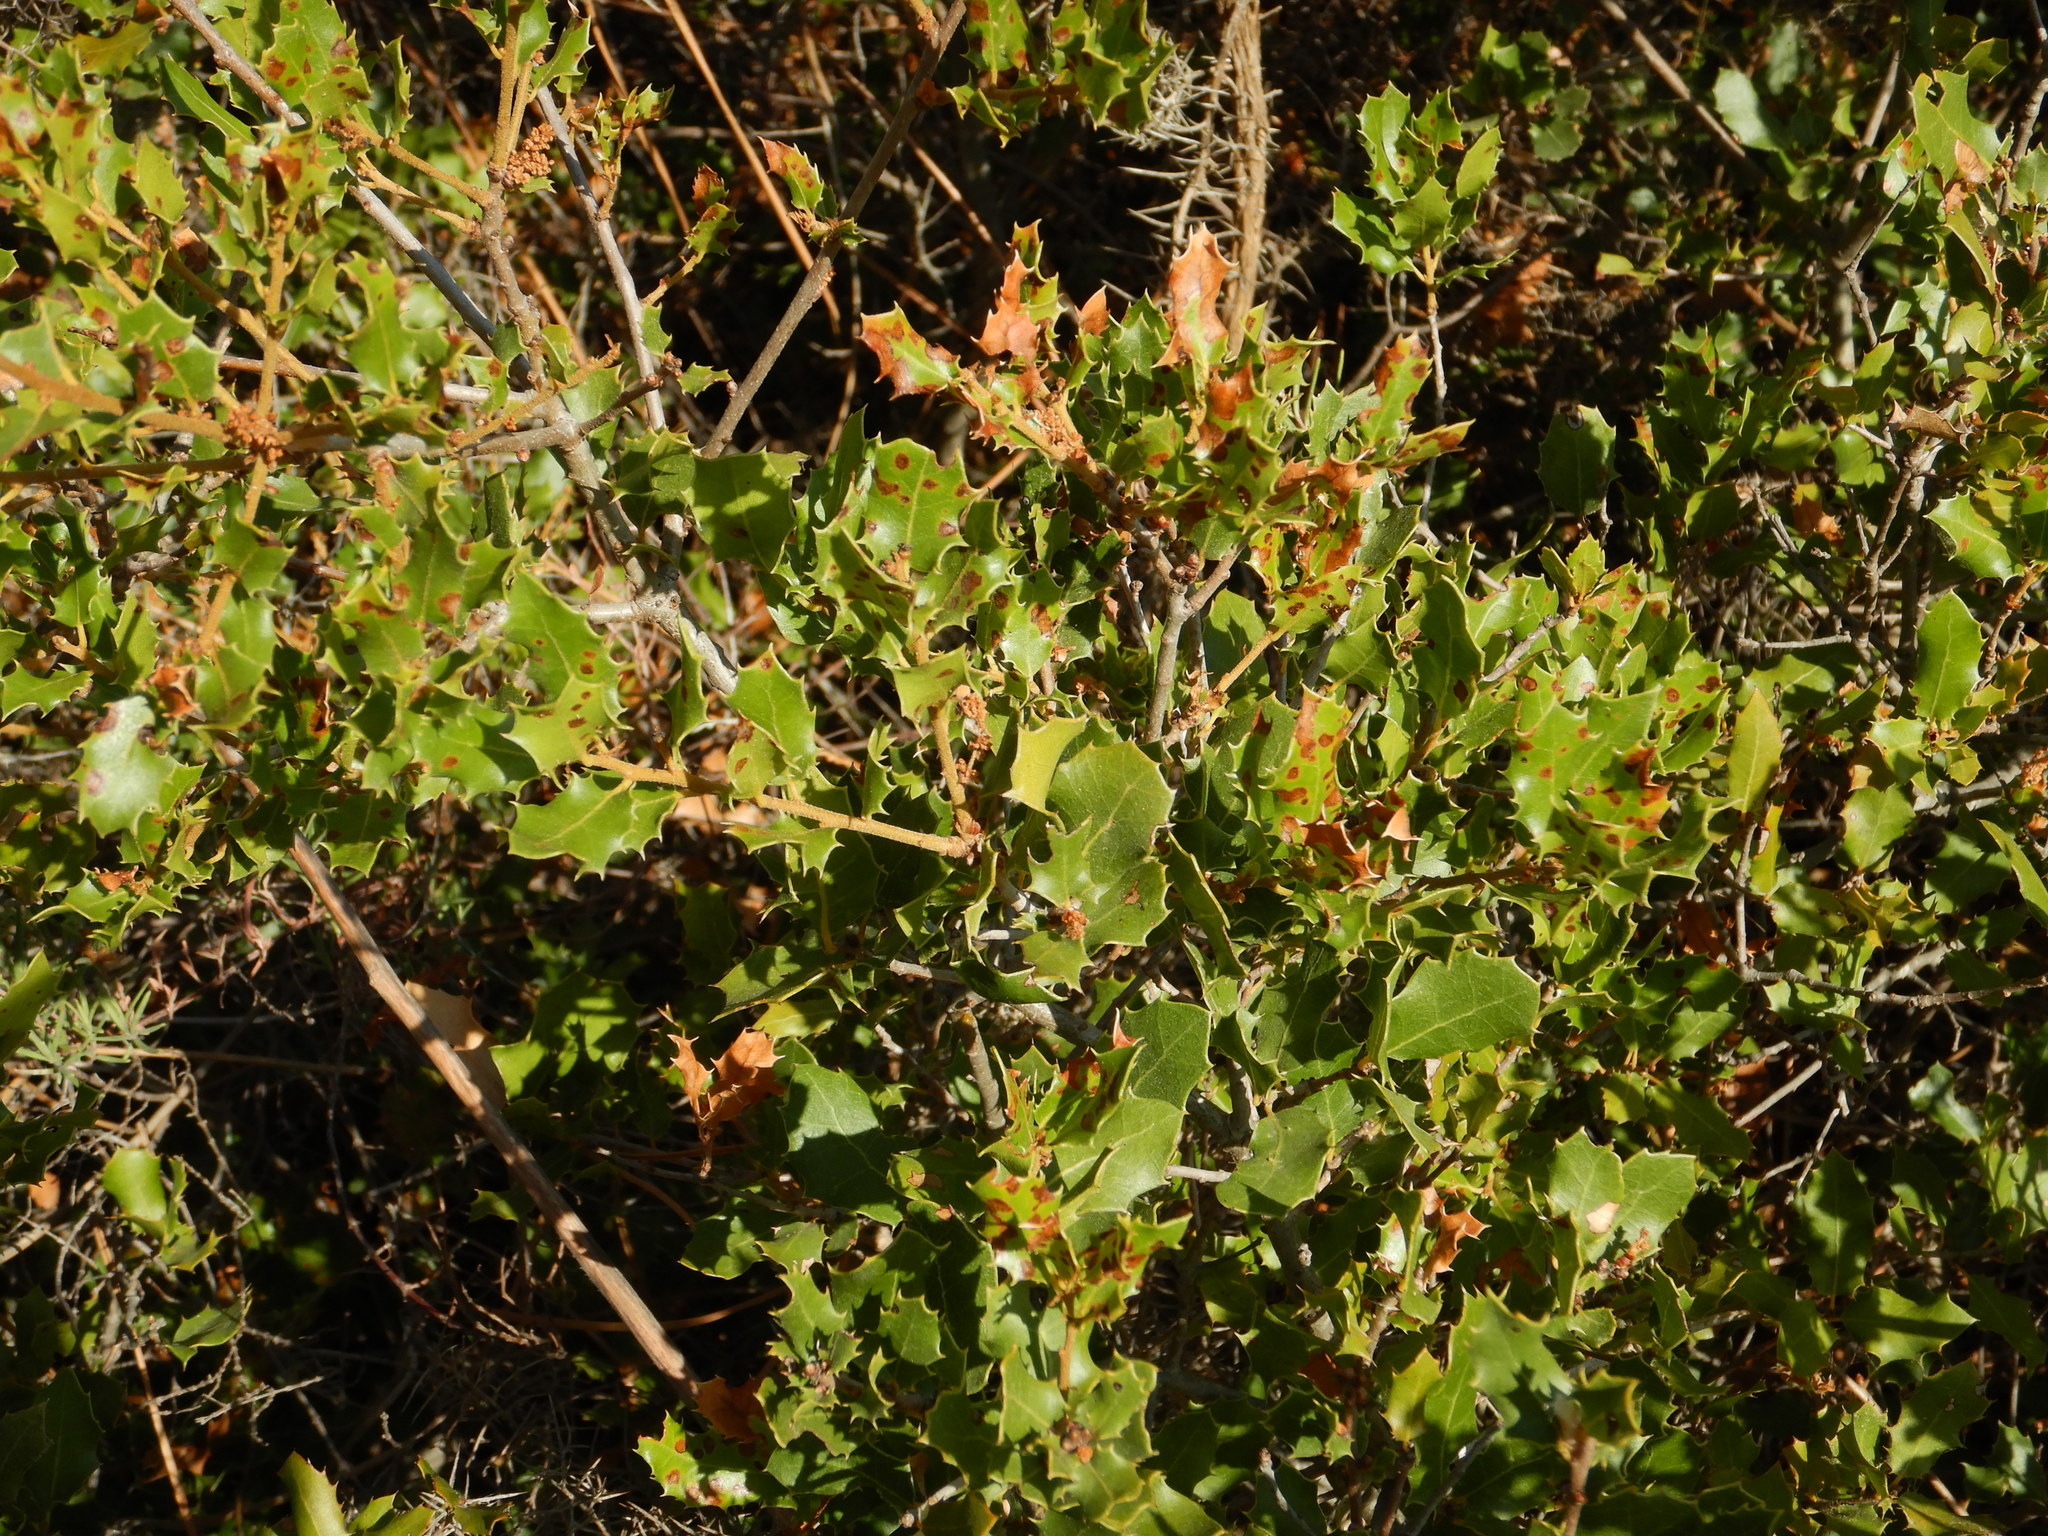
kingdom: Plantae
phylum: Tracheophyta
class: Magnoliopsida
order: Fagales
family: Fagaceae
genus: Quercus
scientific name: Quercus coccifera
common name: Kermes oak
